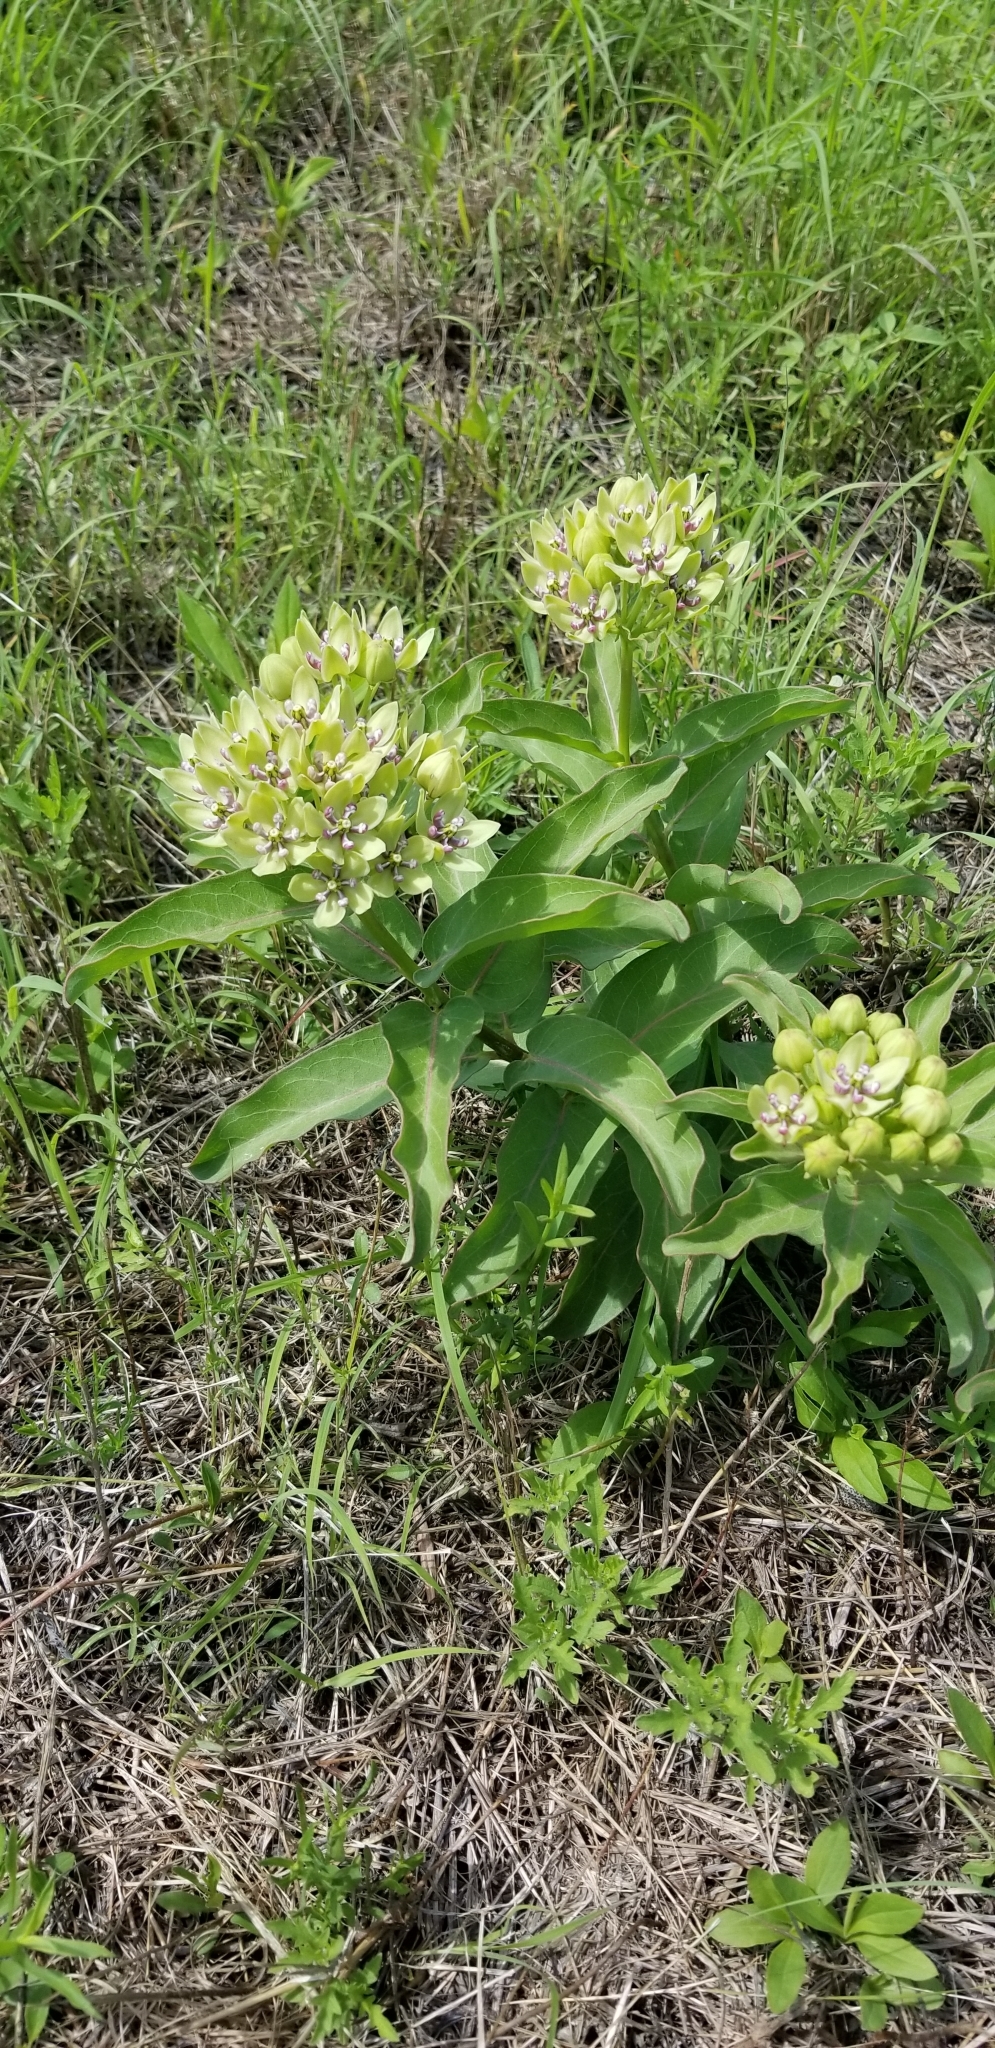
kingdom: Plantae
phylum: Tracheophyta
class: Magnoliopsida
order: Gentianales
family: Apocynaceae
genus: Asclepias
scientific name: Asclepias viridis
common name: Antelope-horns
